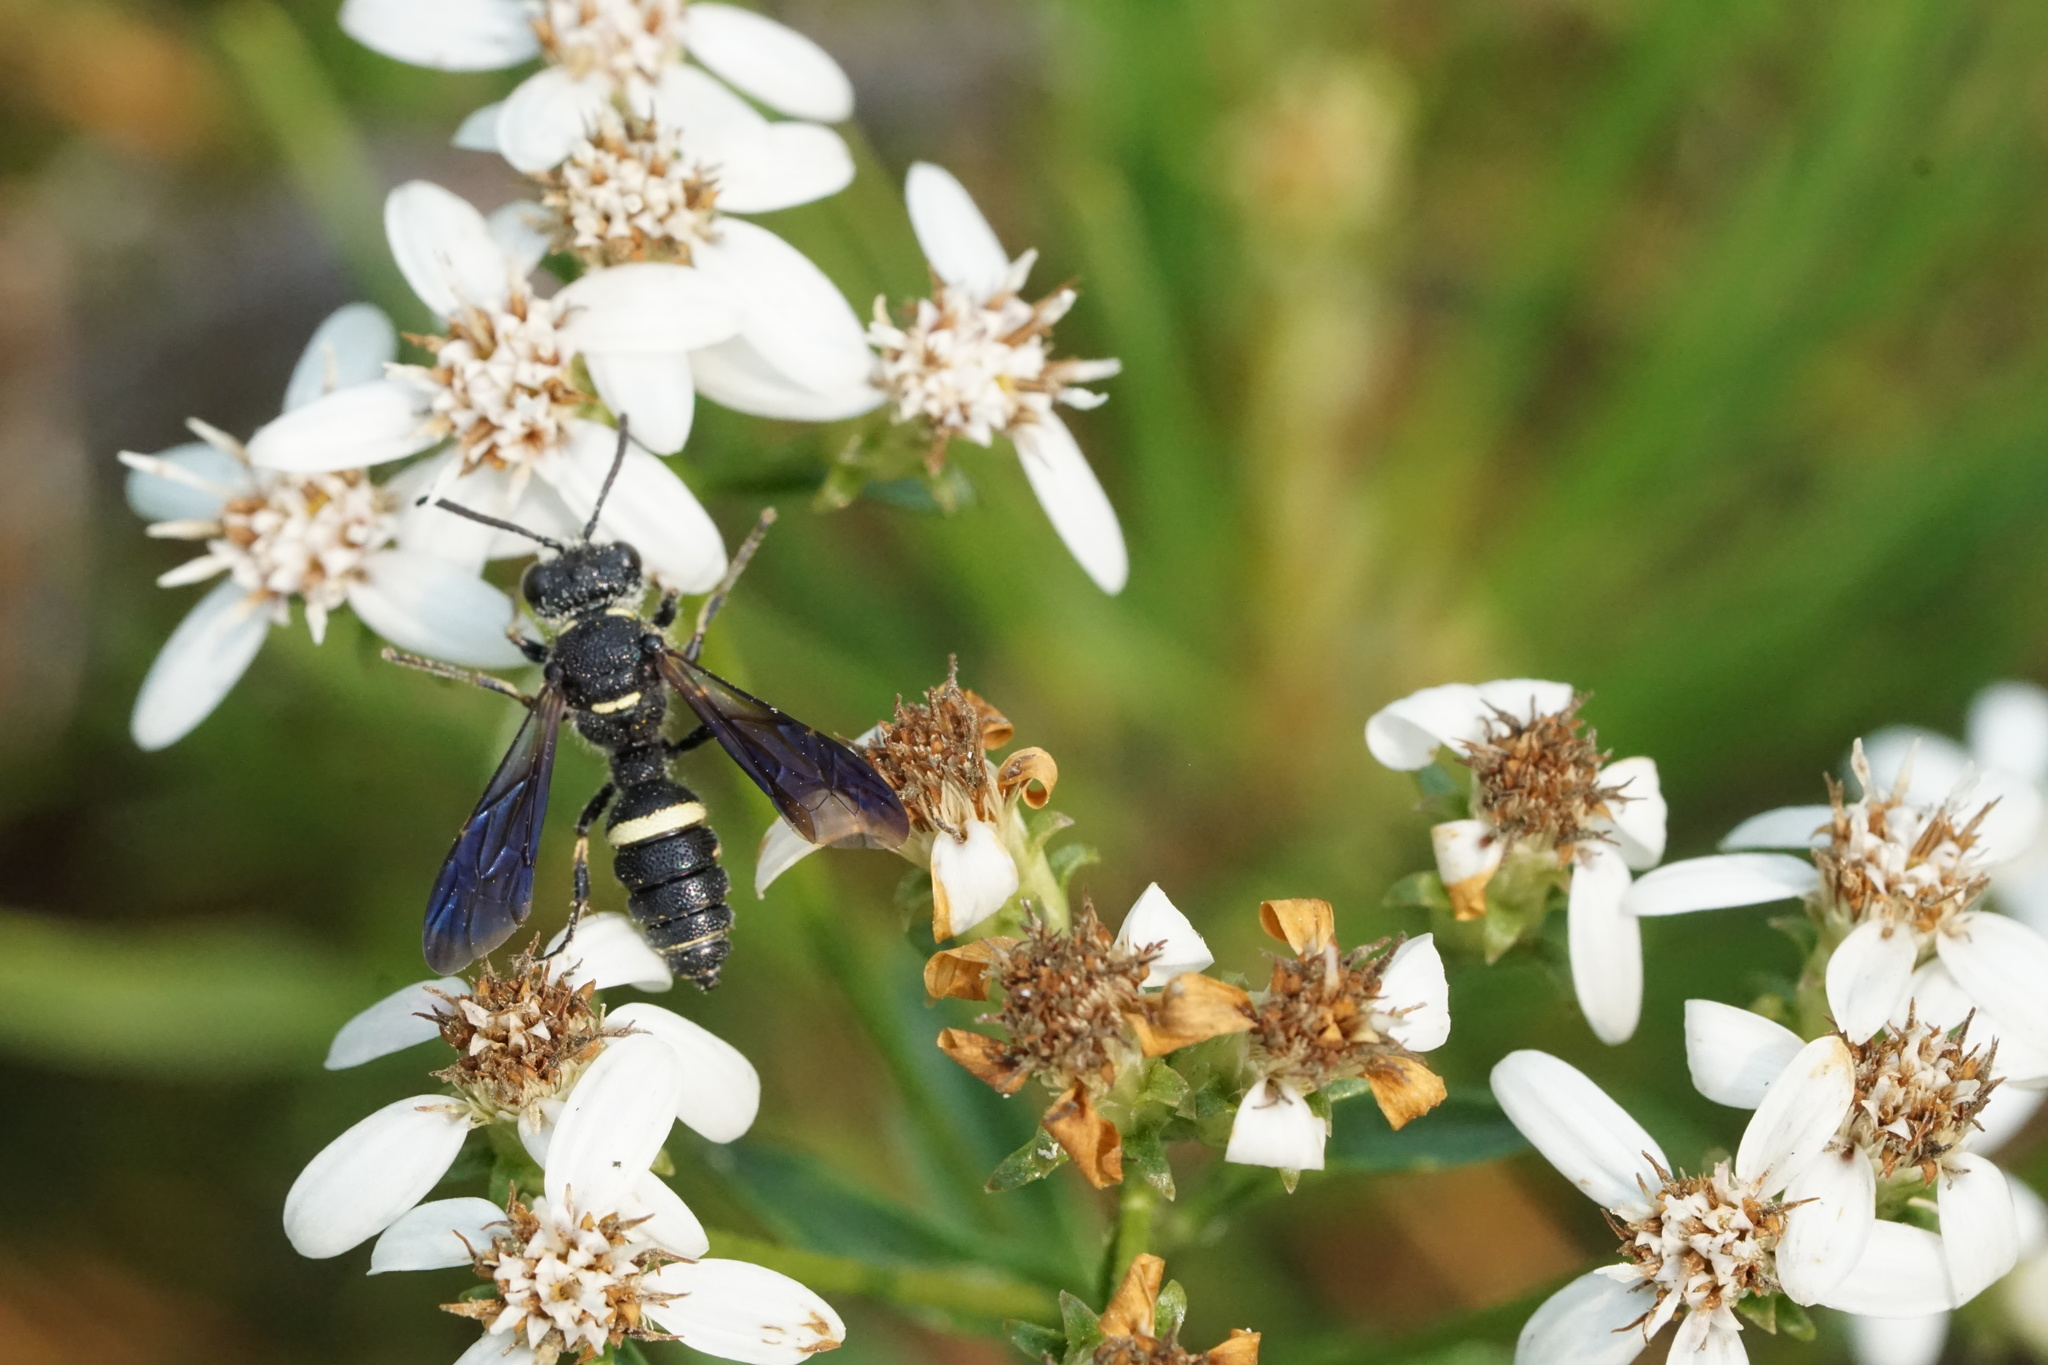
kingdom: Animalia
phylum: Arthropoda
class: Insecta
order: Hymenoptera
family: Crabronidae
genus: Cerceris
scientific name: Cerceris fumipennis
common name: Smokey-winged beetle bandit wasp
